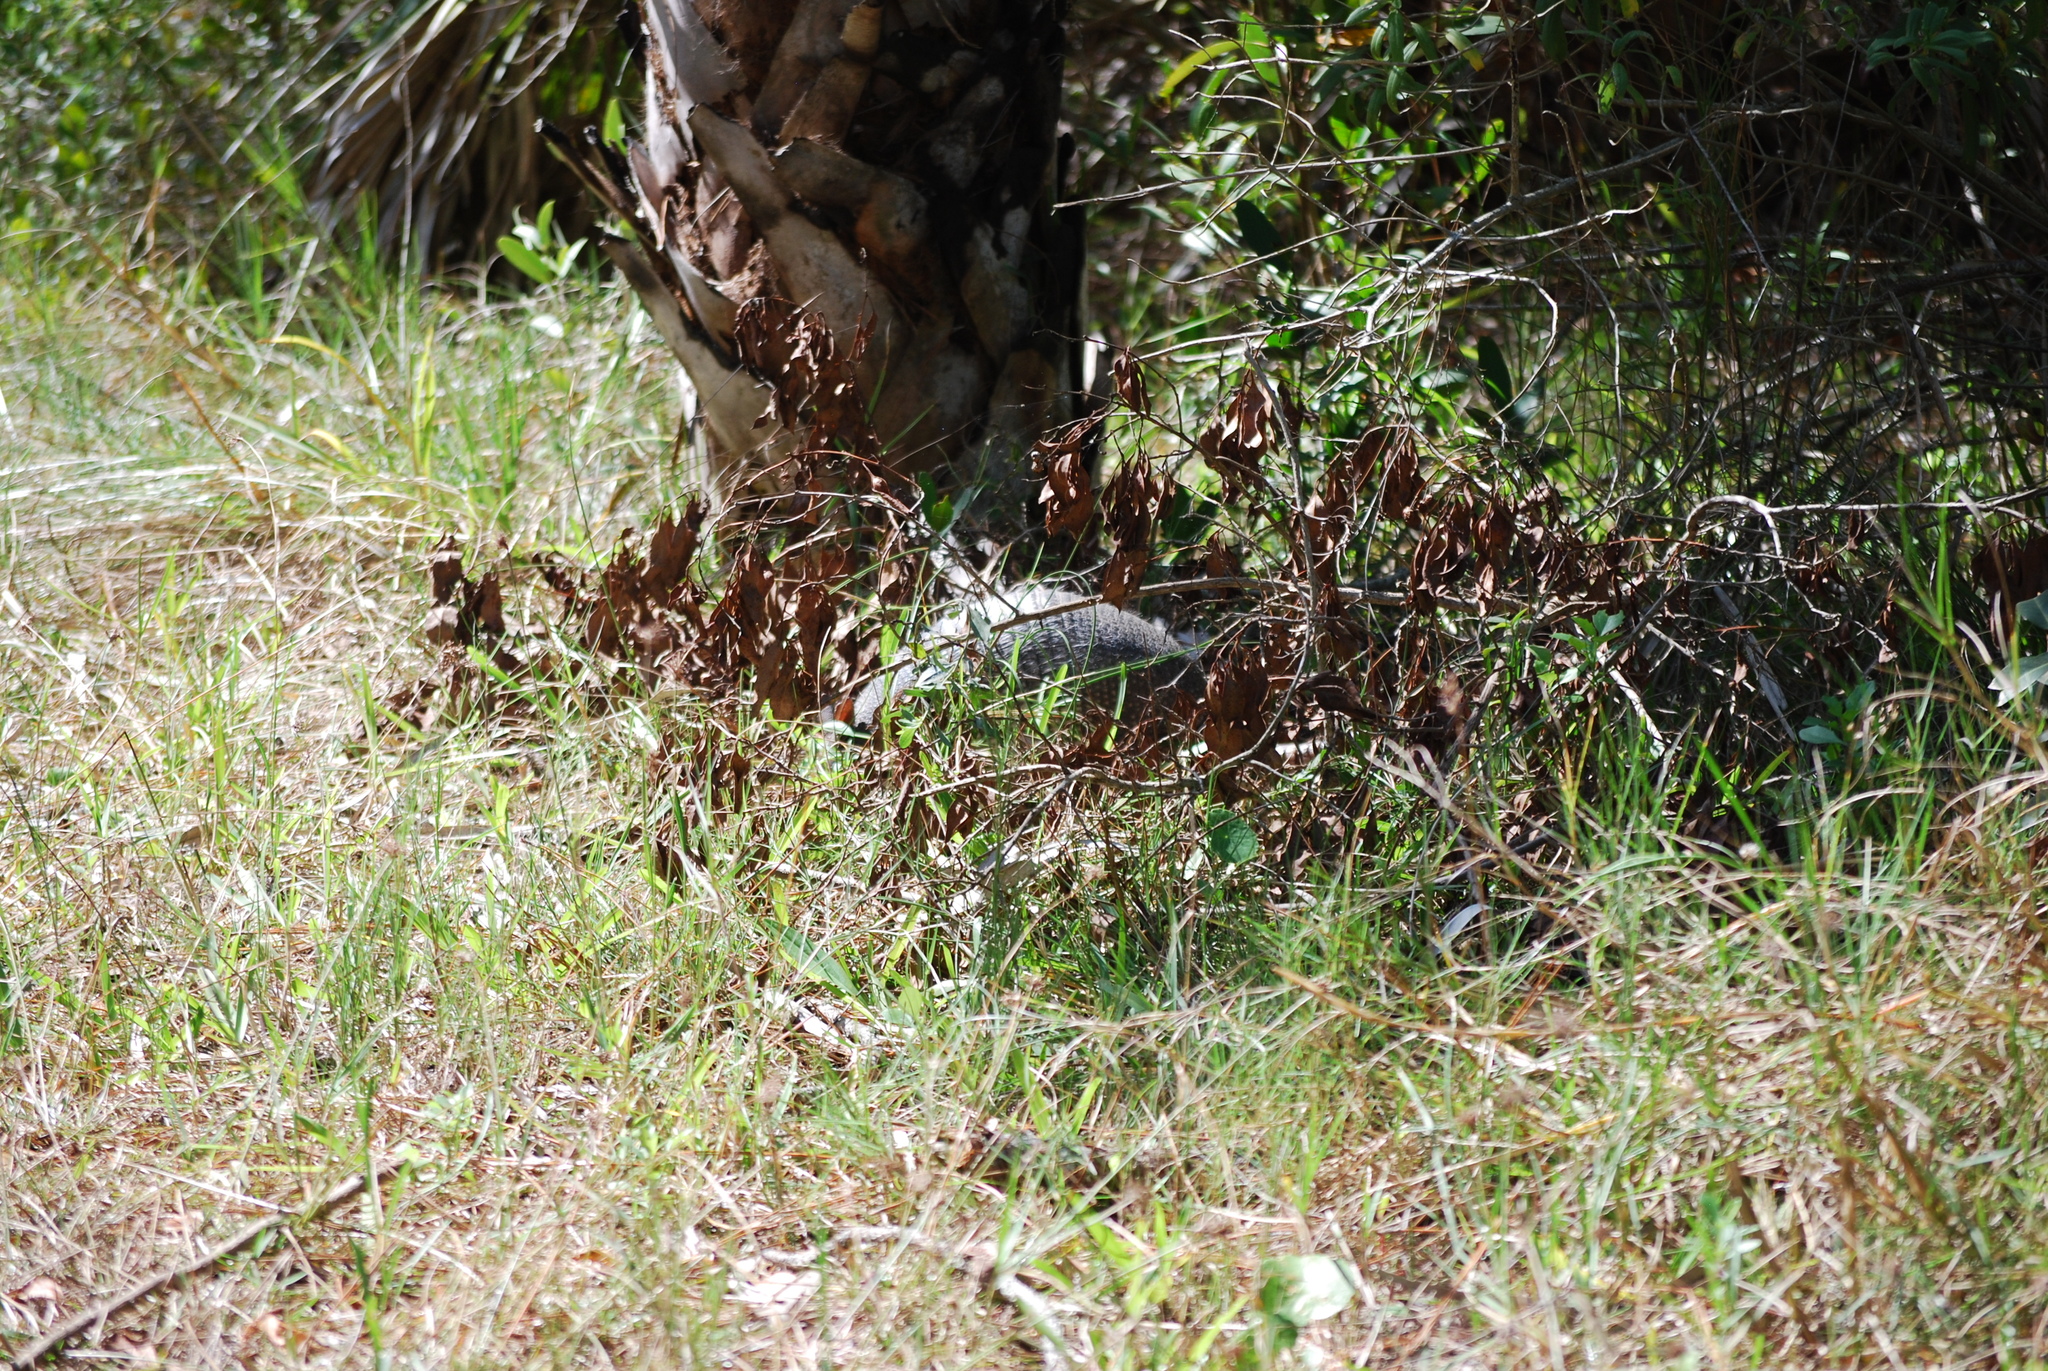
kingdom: Animalia
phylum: Chordata
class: Mammalia
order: Cingulata
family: Dasypodidae
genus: Dasypus
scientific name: Dasypus novemcinctus
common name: Nine-banded armadillo
